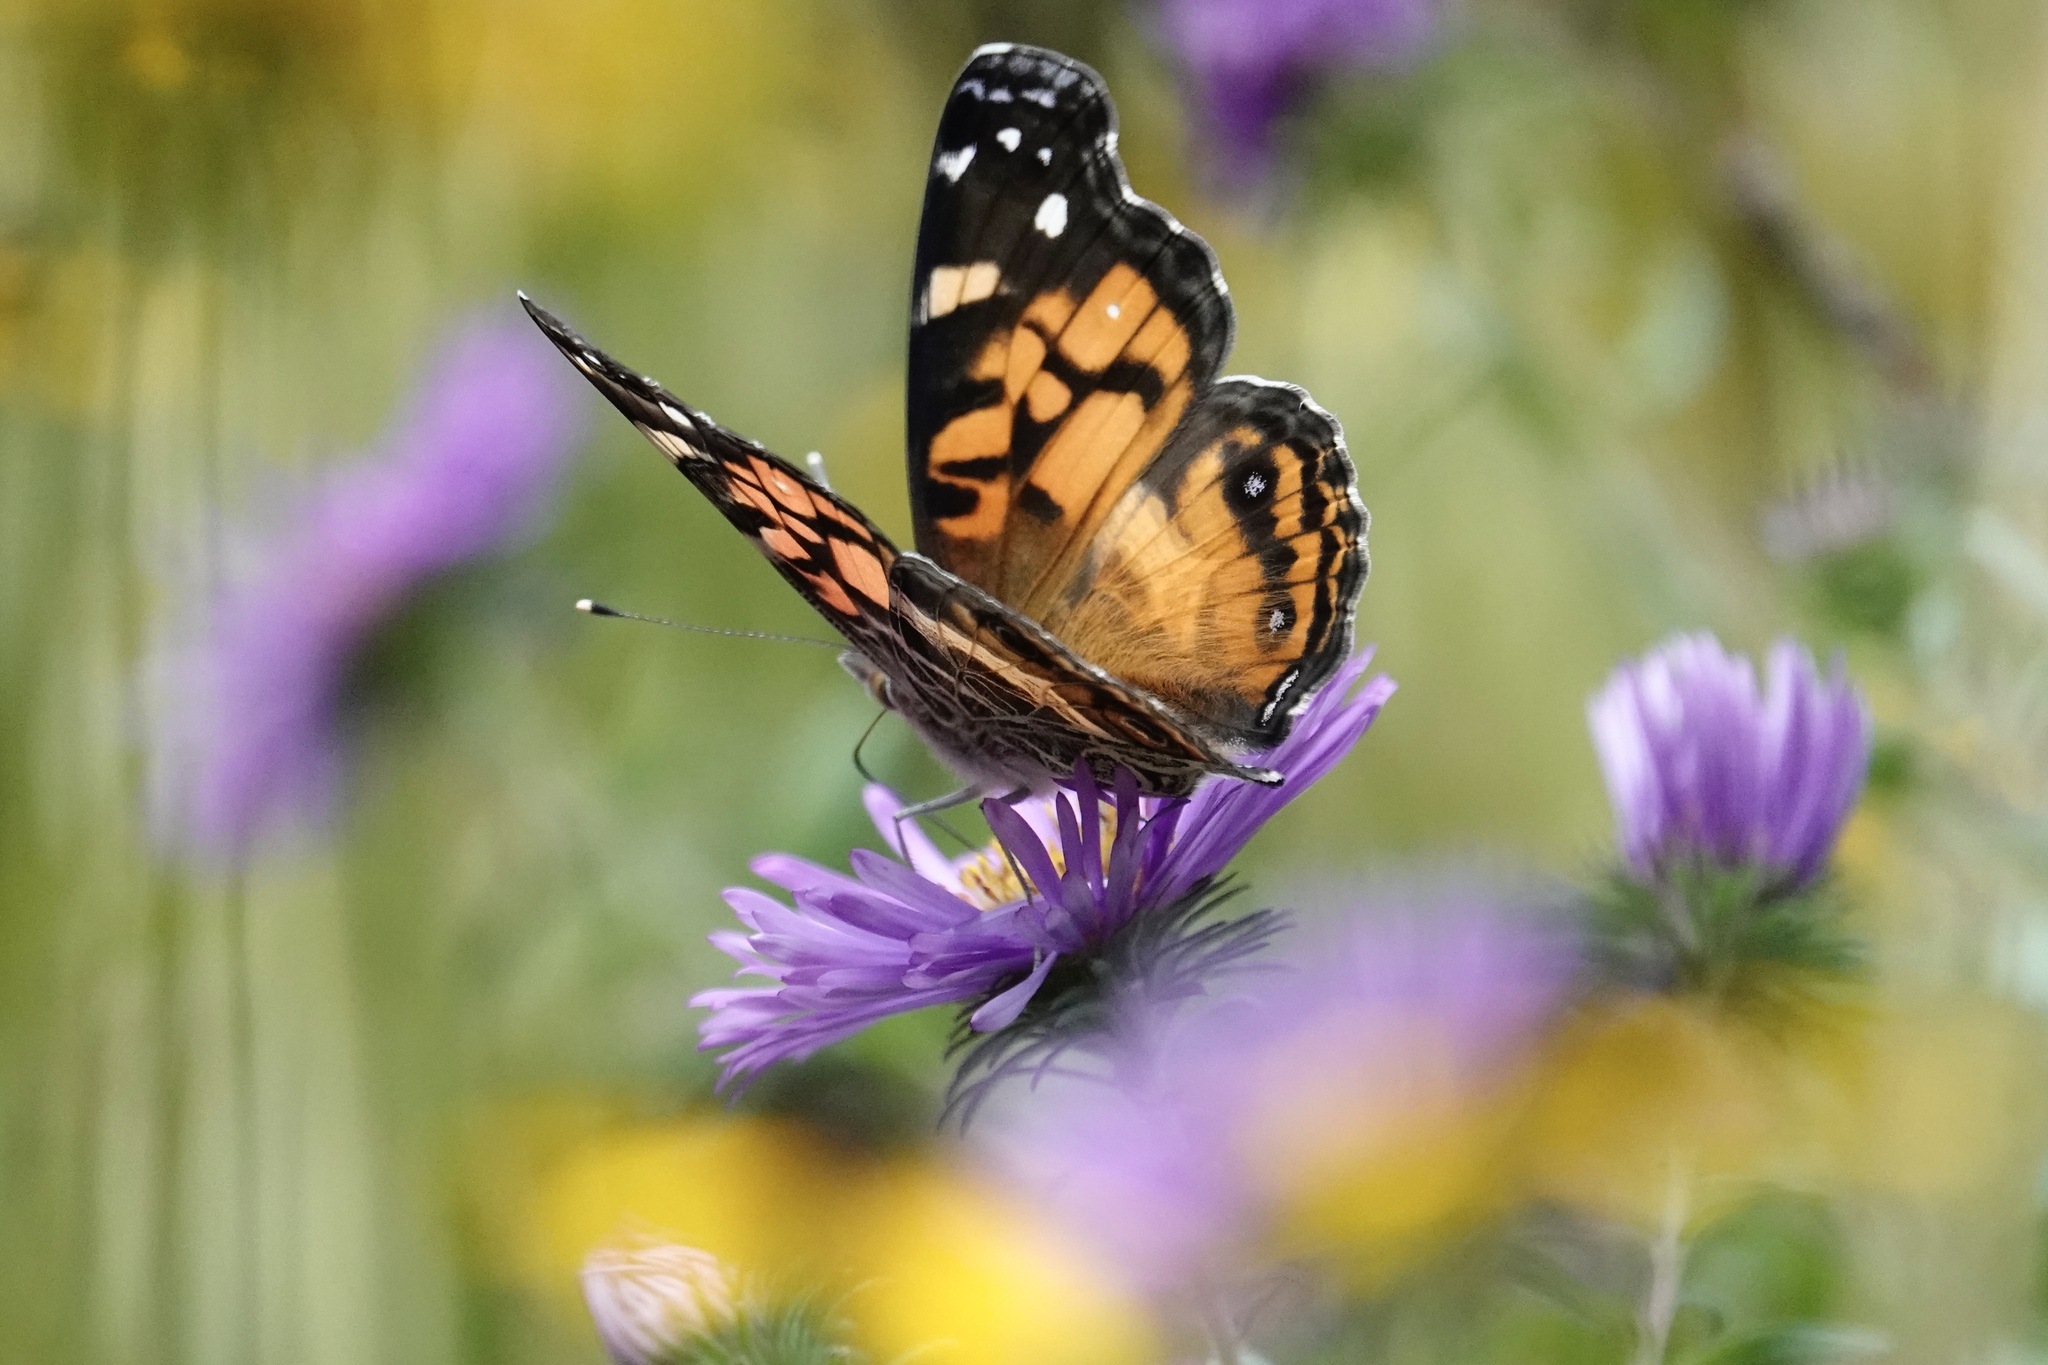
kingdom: Animalia
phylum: Arthropoda
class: Insecta
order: Lepidoptera
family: Nymphalidae
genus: Vanessa
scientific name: Vanessa virginiensis
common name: American lady
